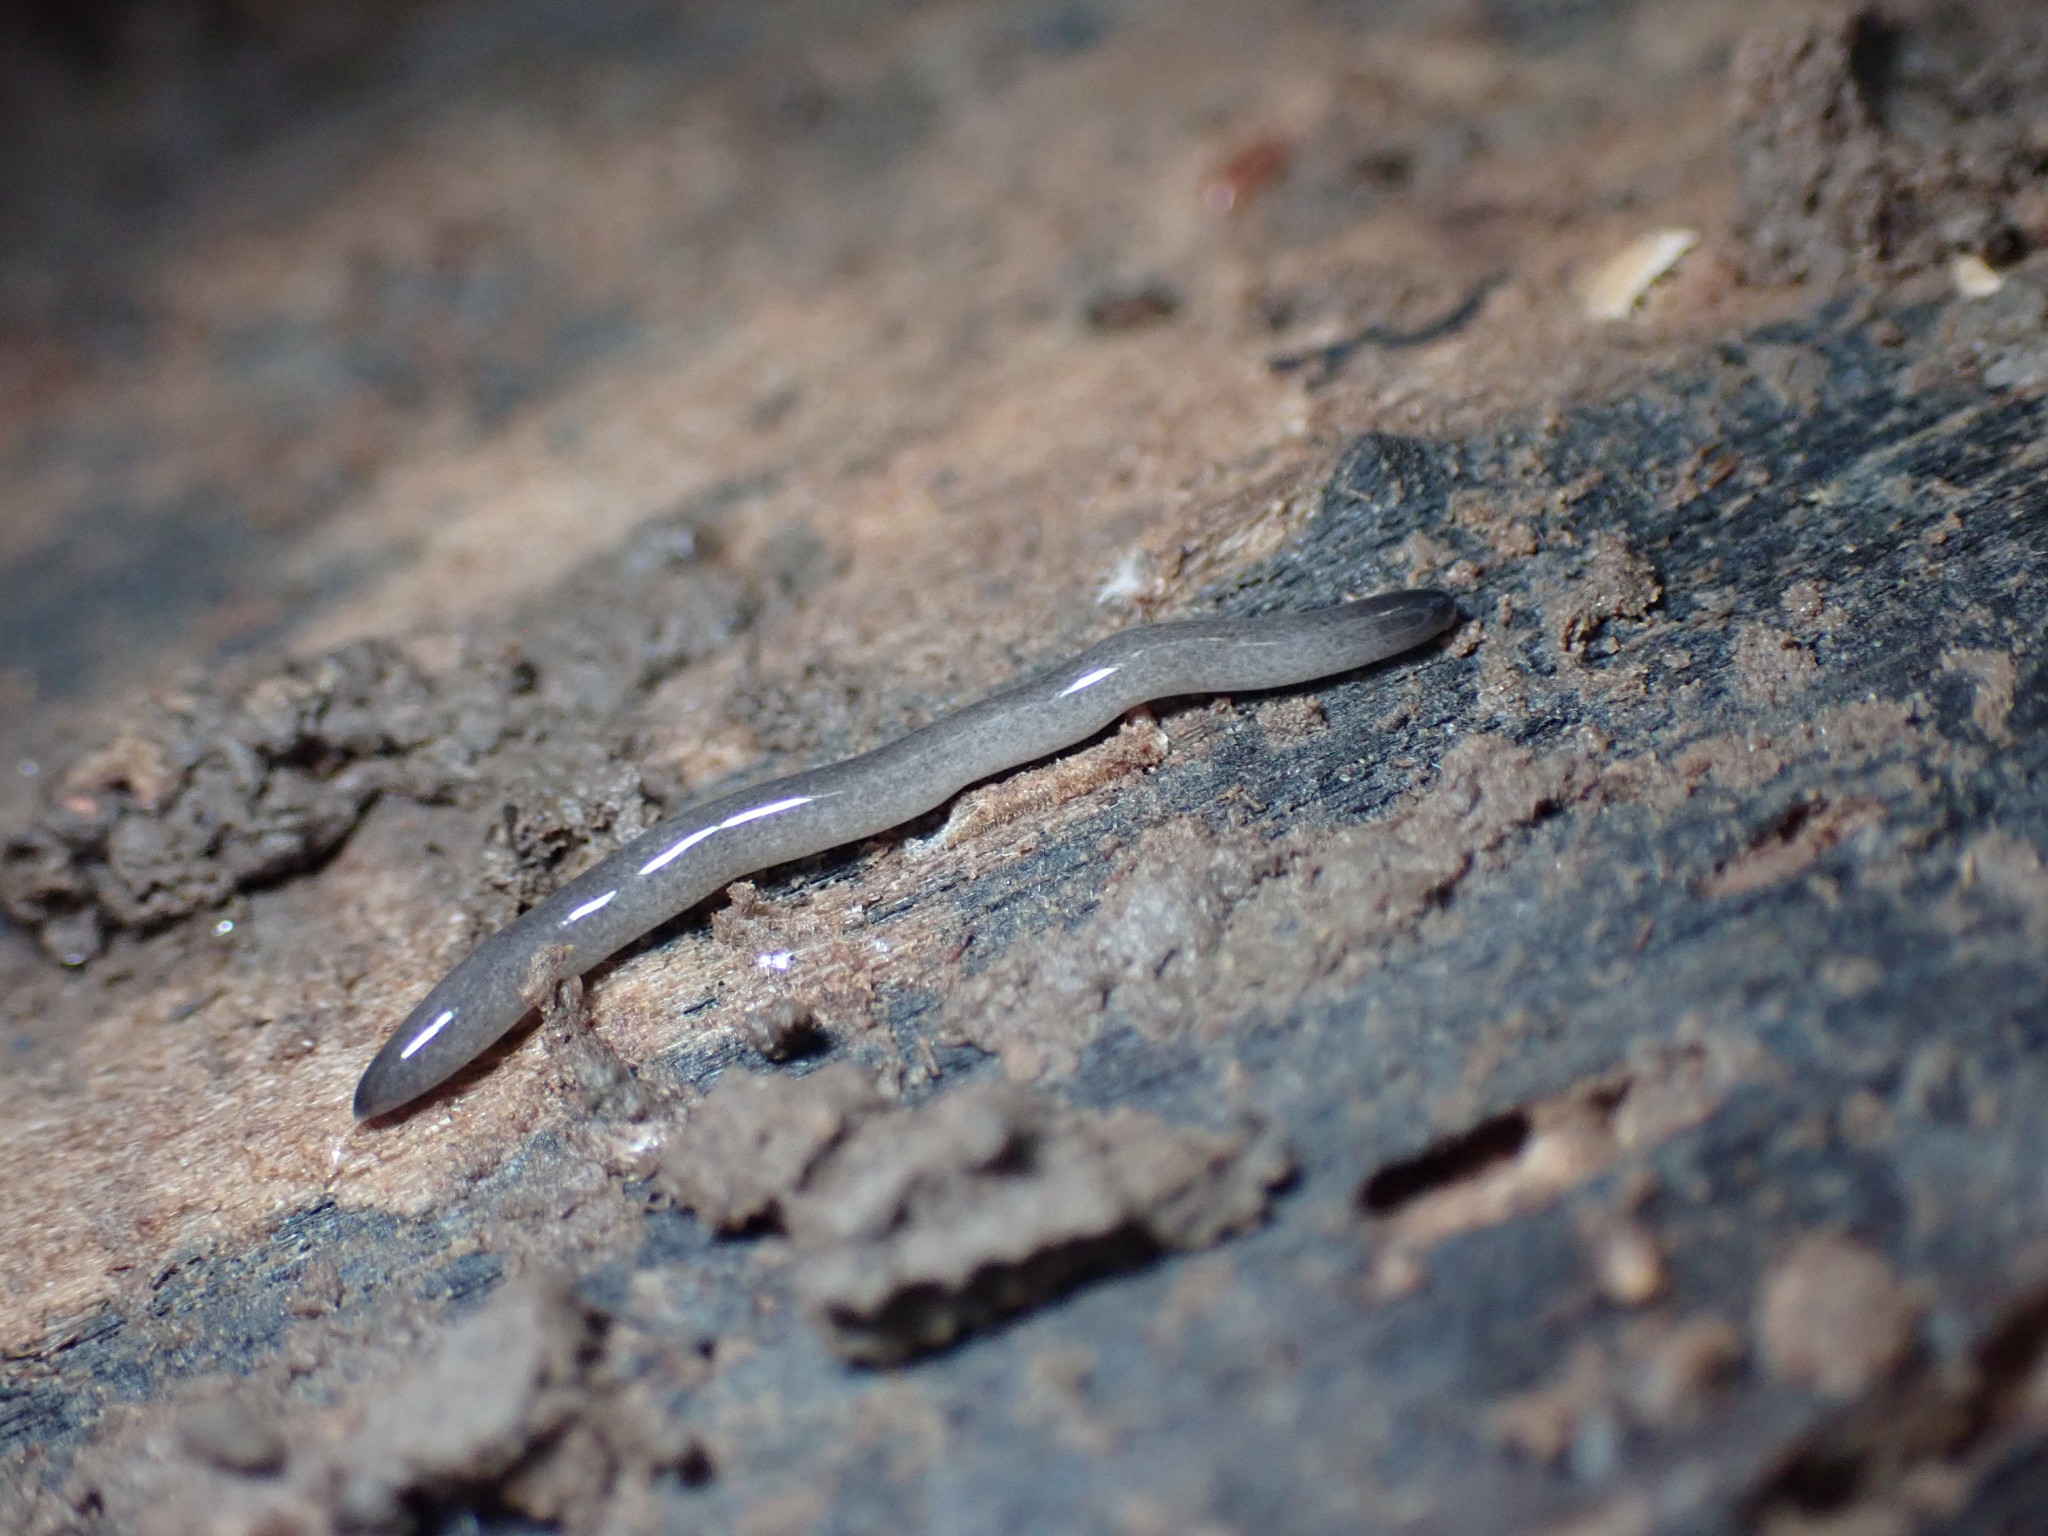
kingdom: Animalia
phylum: Platyhelminthes
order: Tricladida
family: Geoplanidae
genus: Microplana
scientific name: Microplana terrestris
